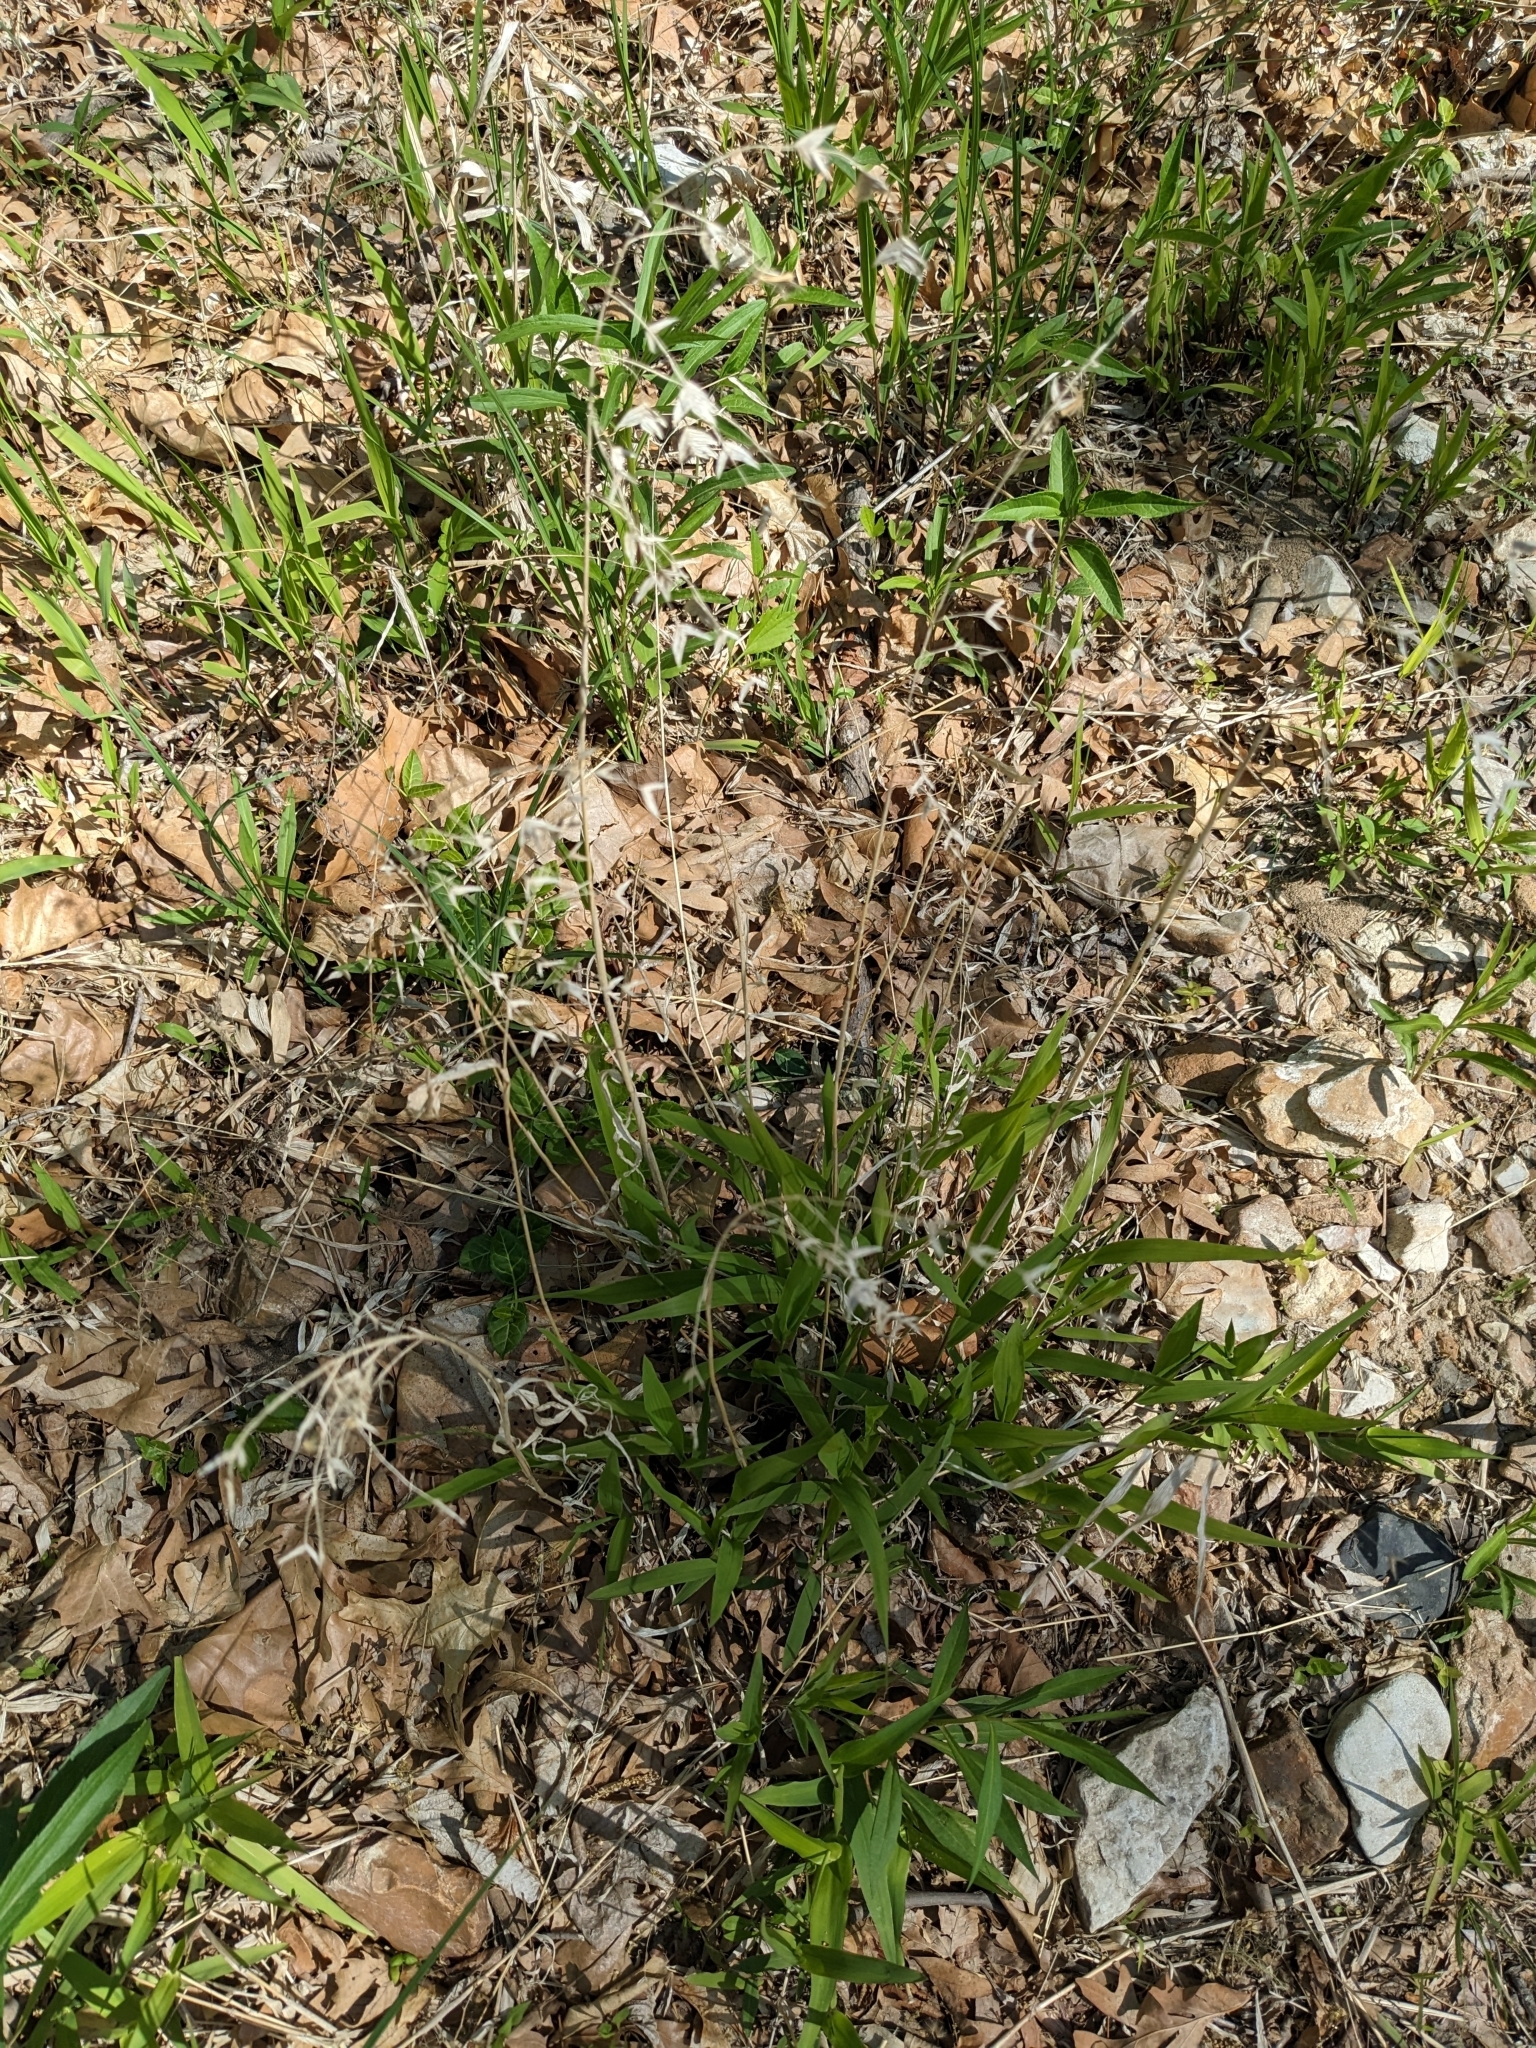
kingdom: Plantae
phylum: Tracheophyta
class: Liliopsida
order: Poales
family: Poaceae
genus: Chasmanthium
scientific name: Chasmanthium latifolium
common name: Broad-leaved chasmanthium
